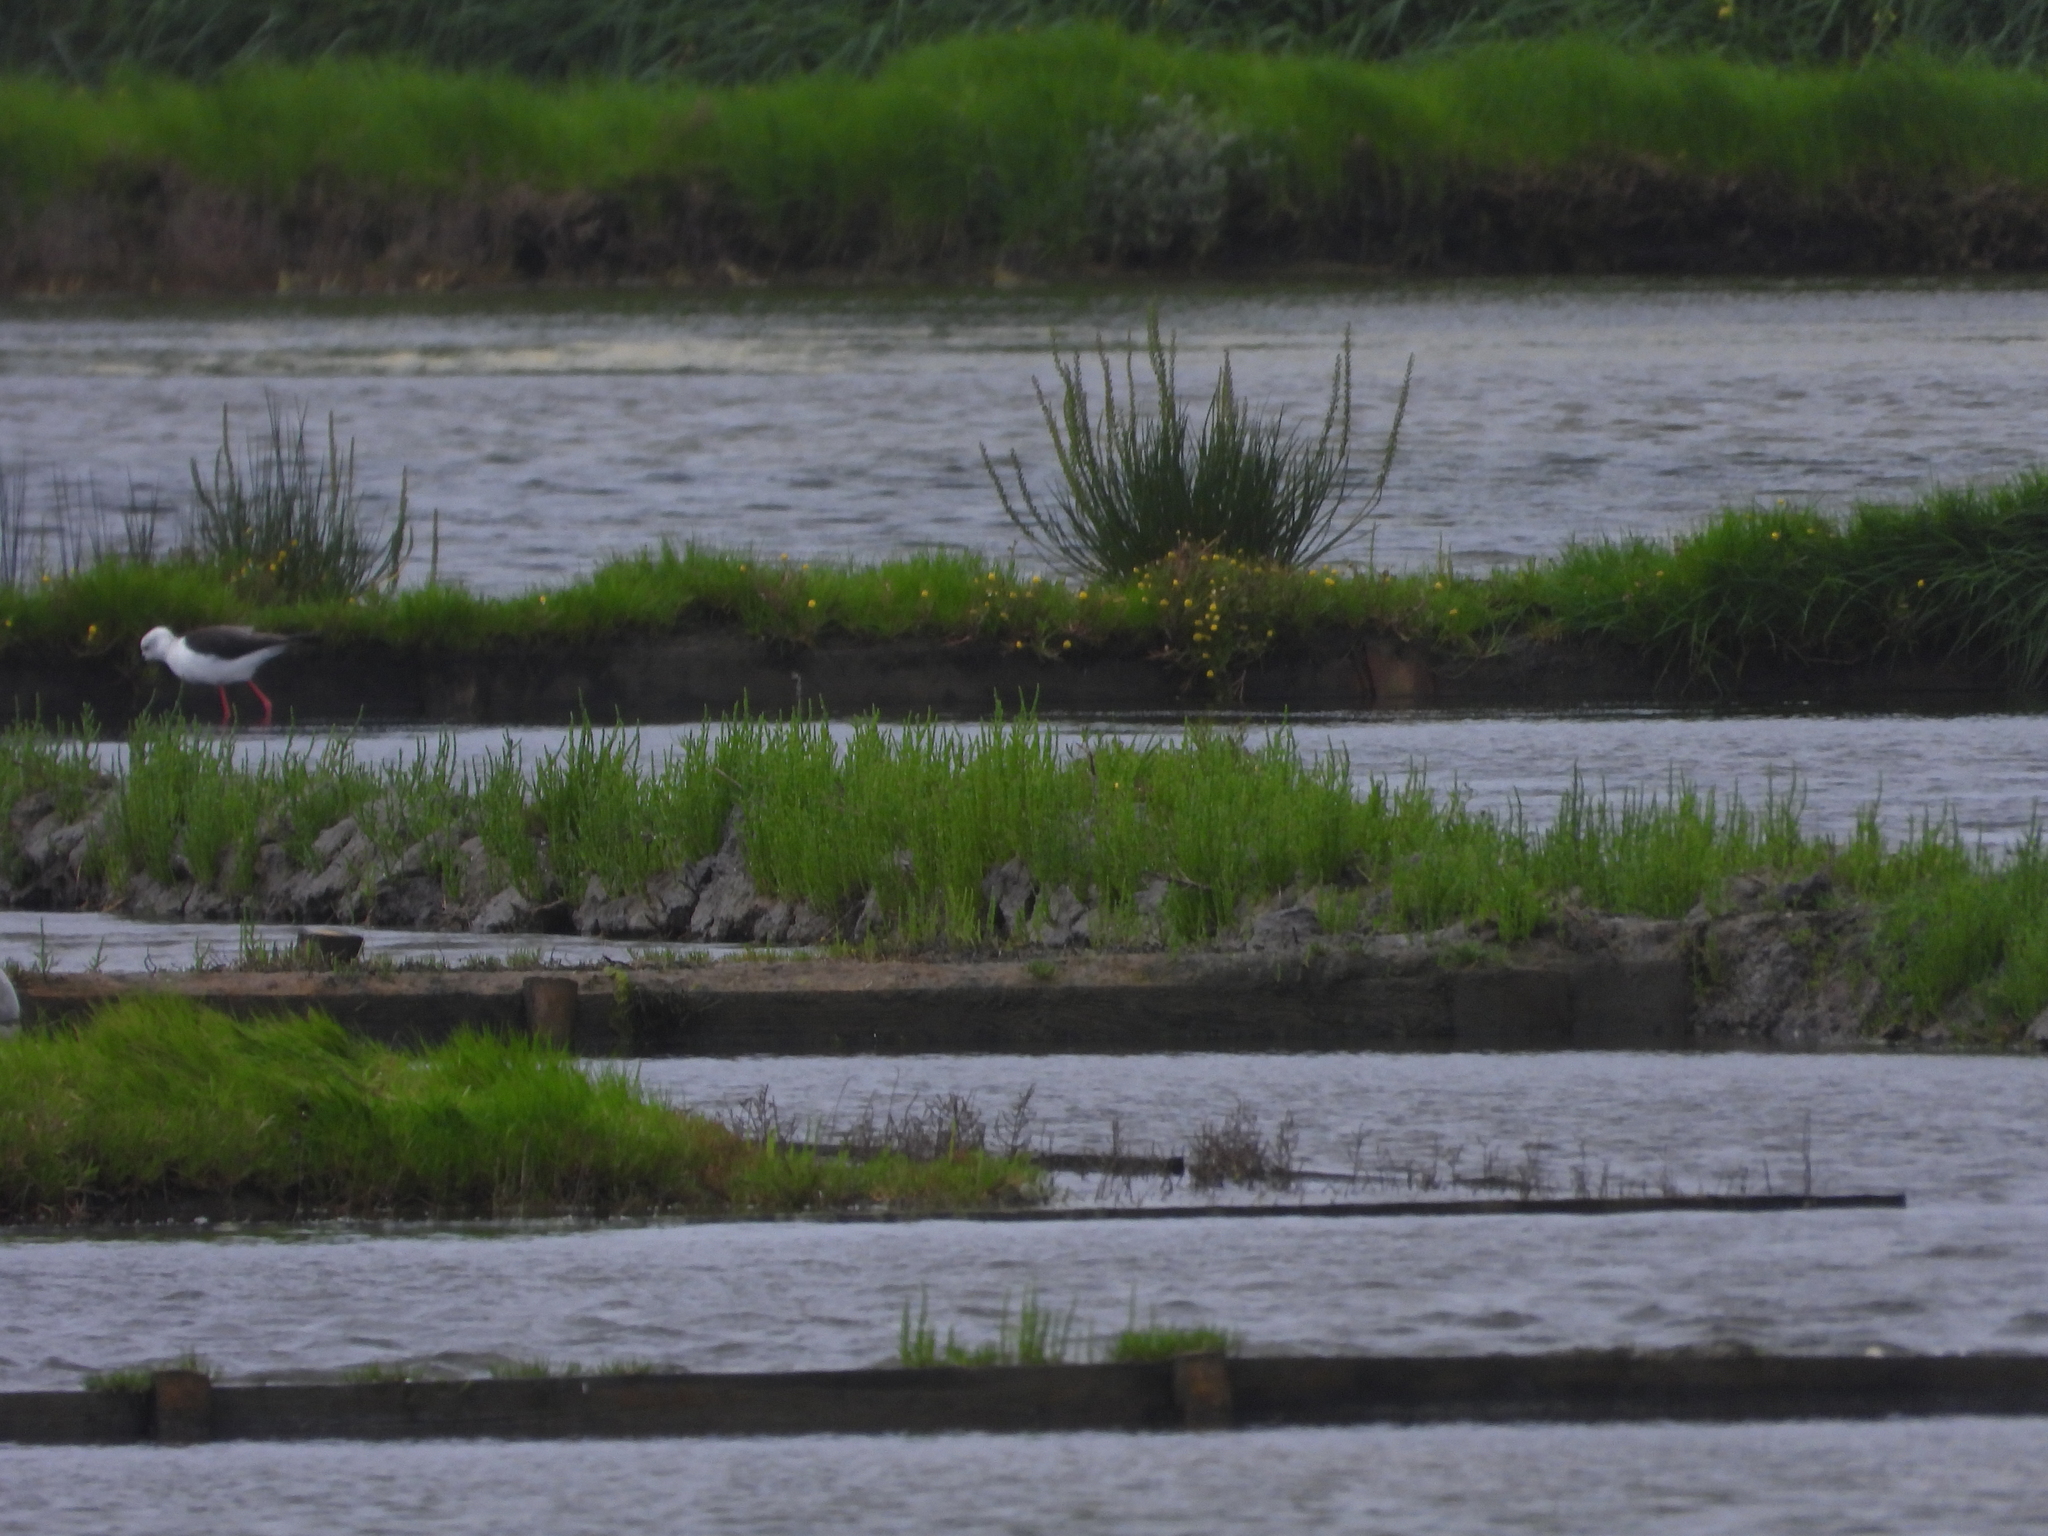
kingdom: Animalia
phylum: Chordata
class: Aves
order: Charadriiformes
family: Recurvirostridae
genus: Himantopus
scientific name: Himantopus himantopus
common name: Black-winged stilt
